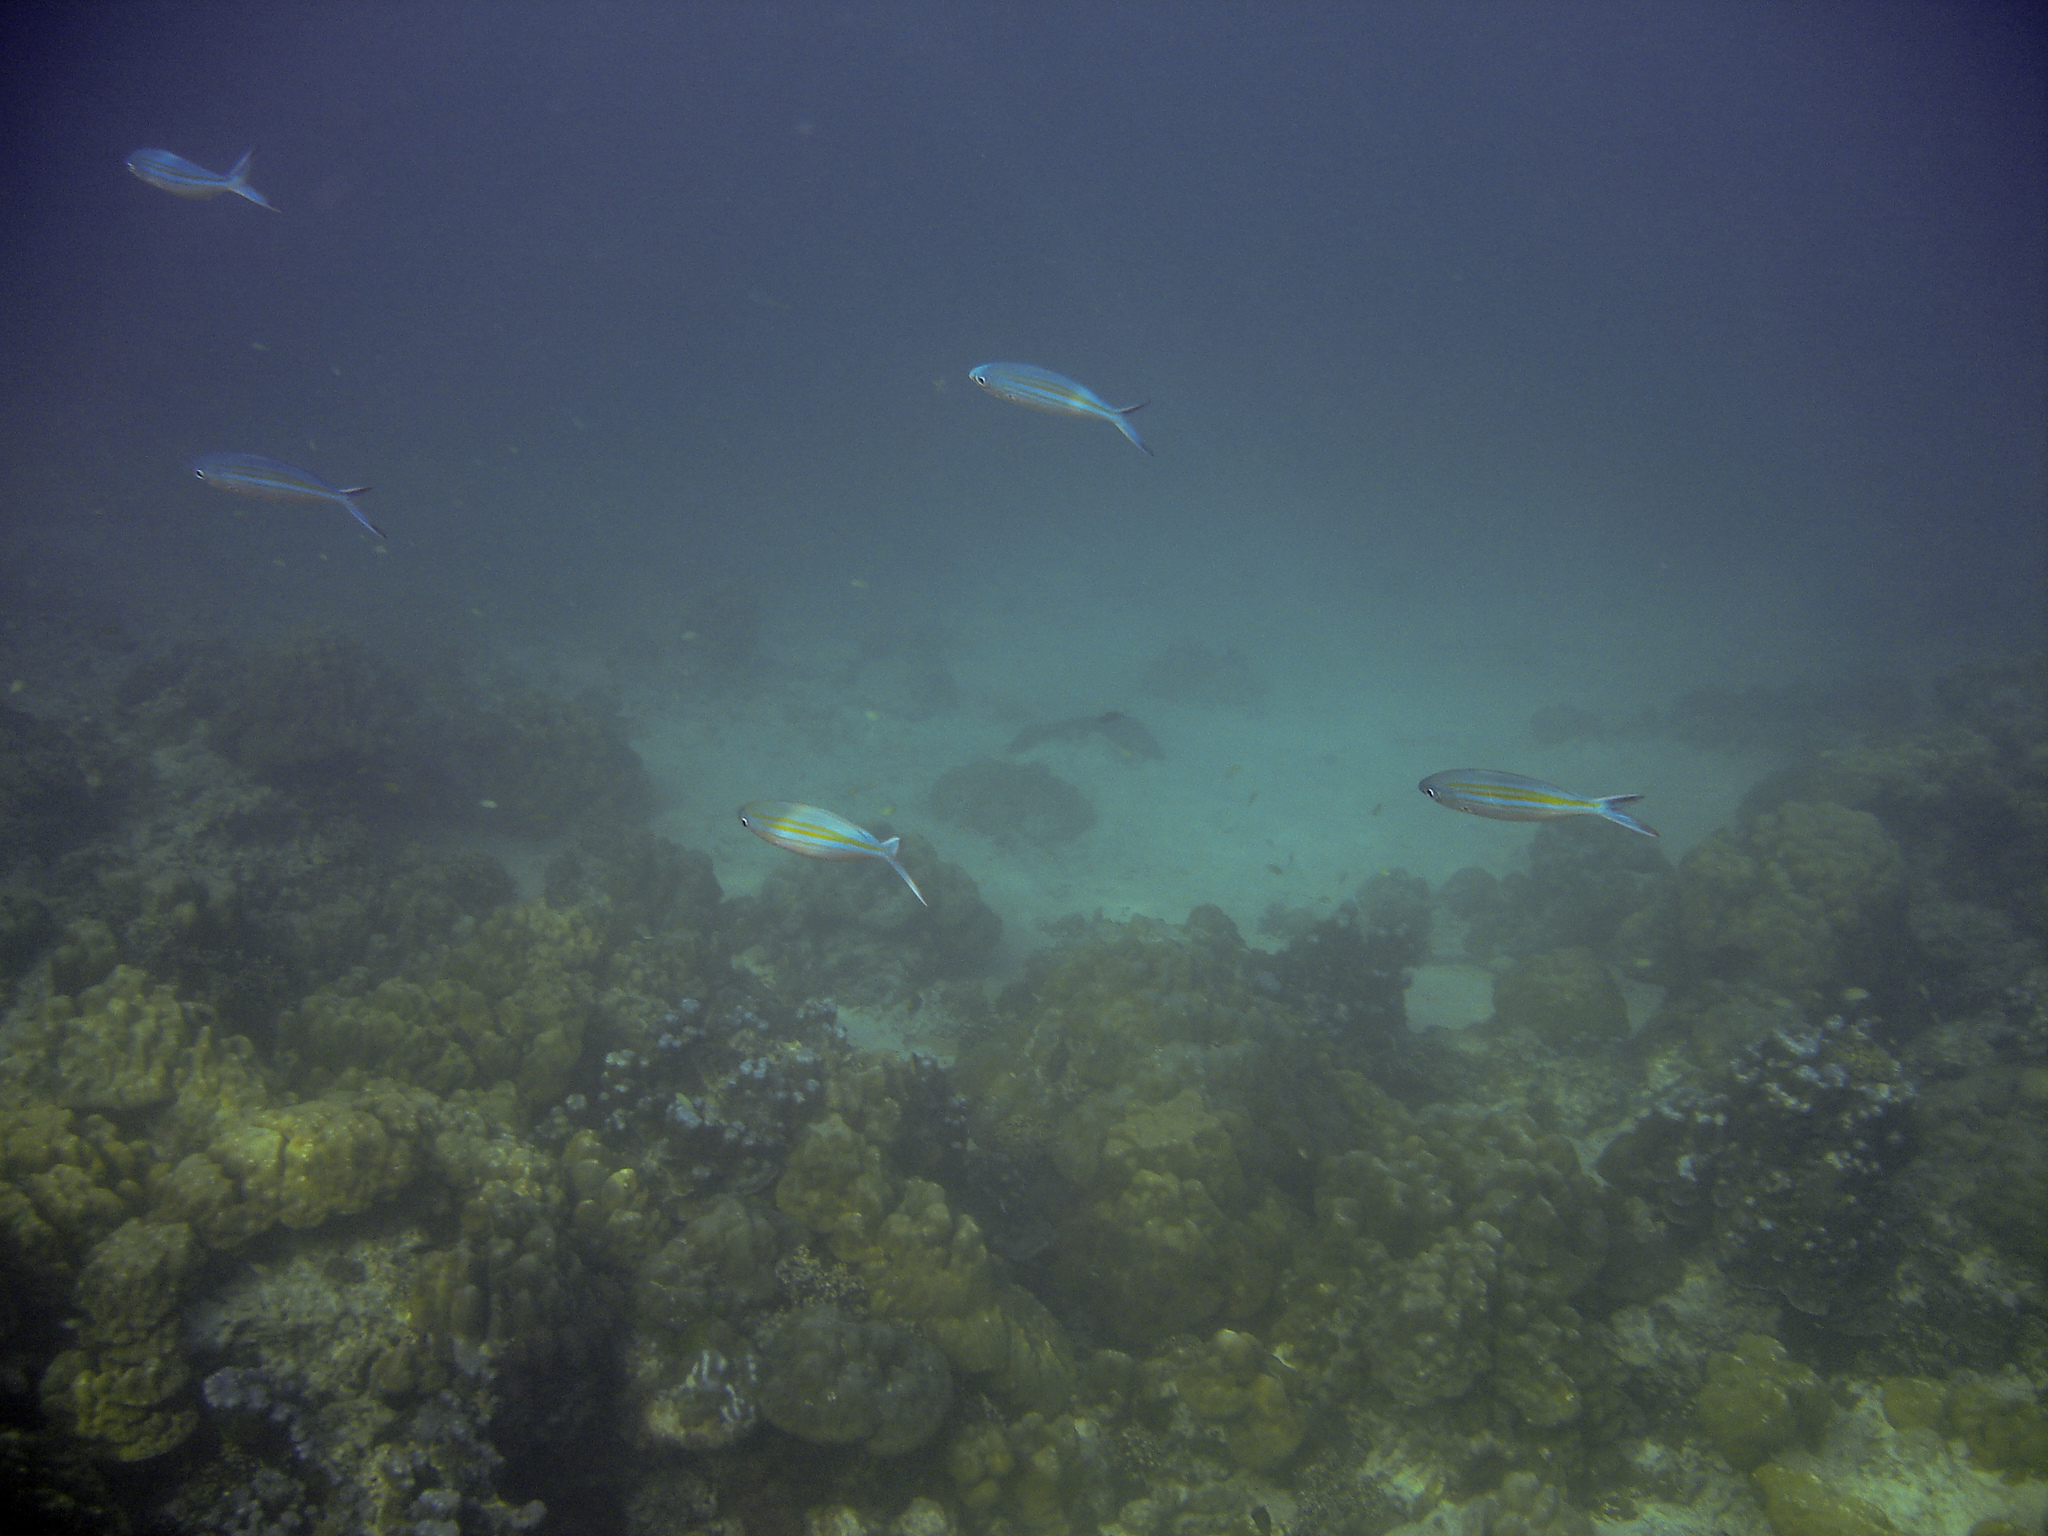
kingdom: Animalia
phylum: Chordata
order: Perciformes
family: Caesionidae
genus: Caesio
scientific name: Caesio varilineata
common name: Variable-lined fusilier
